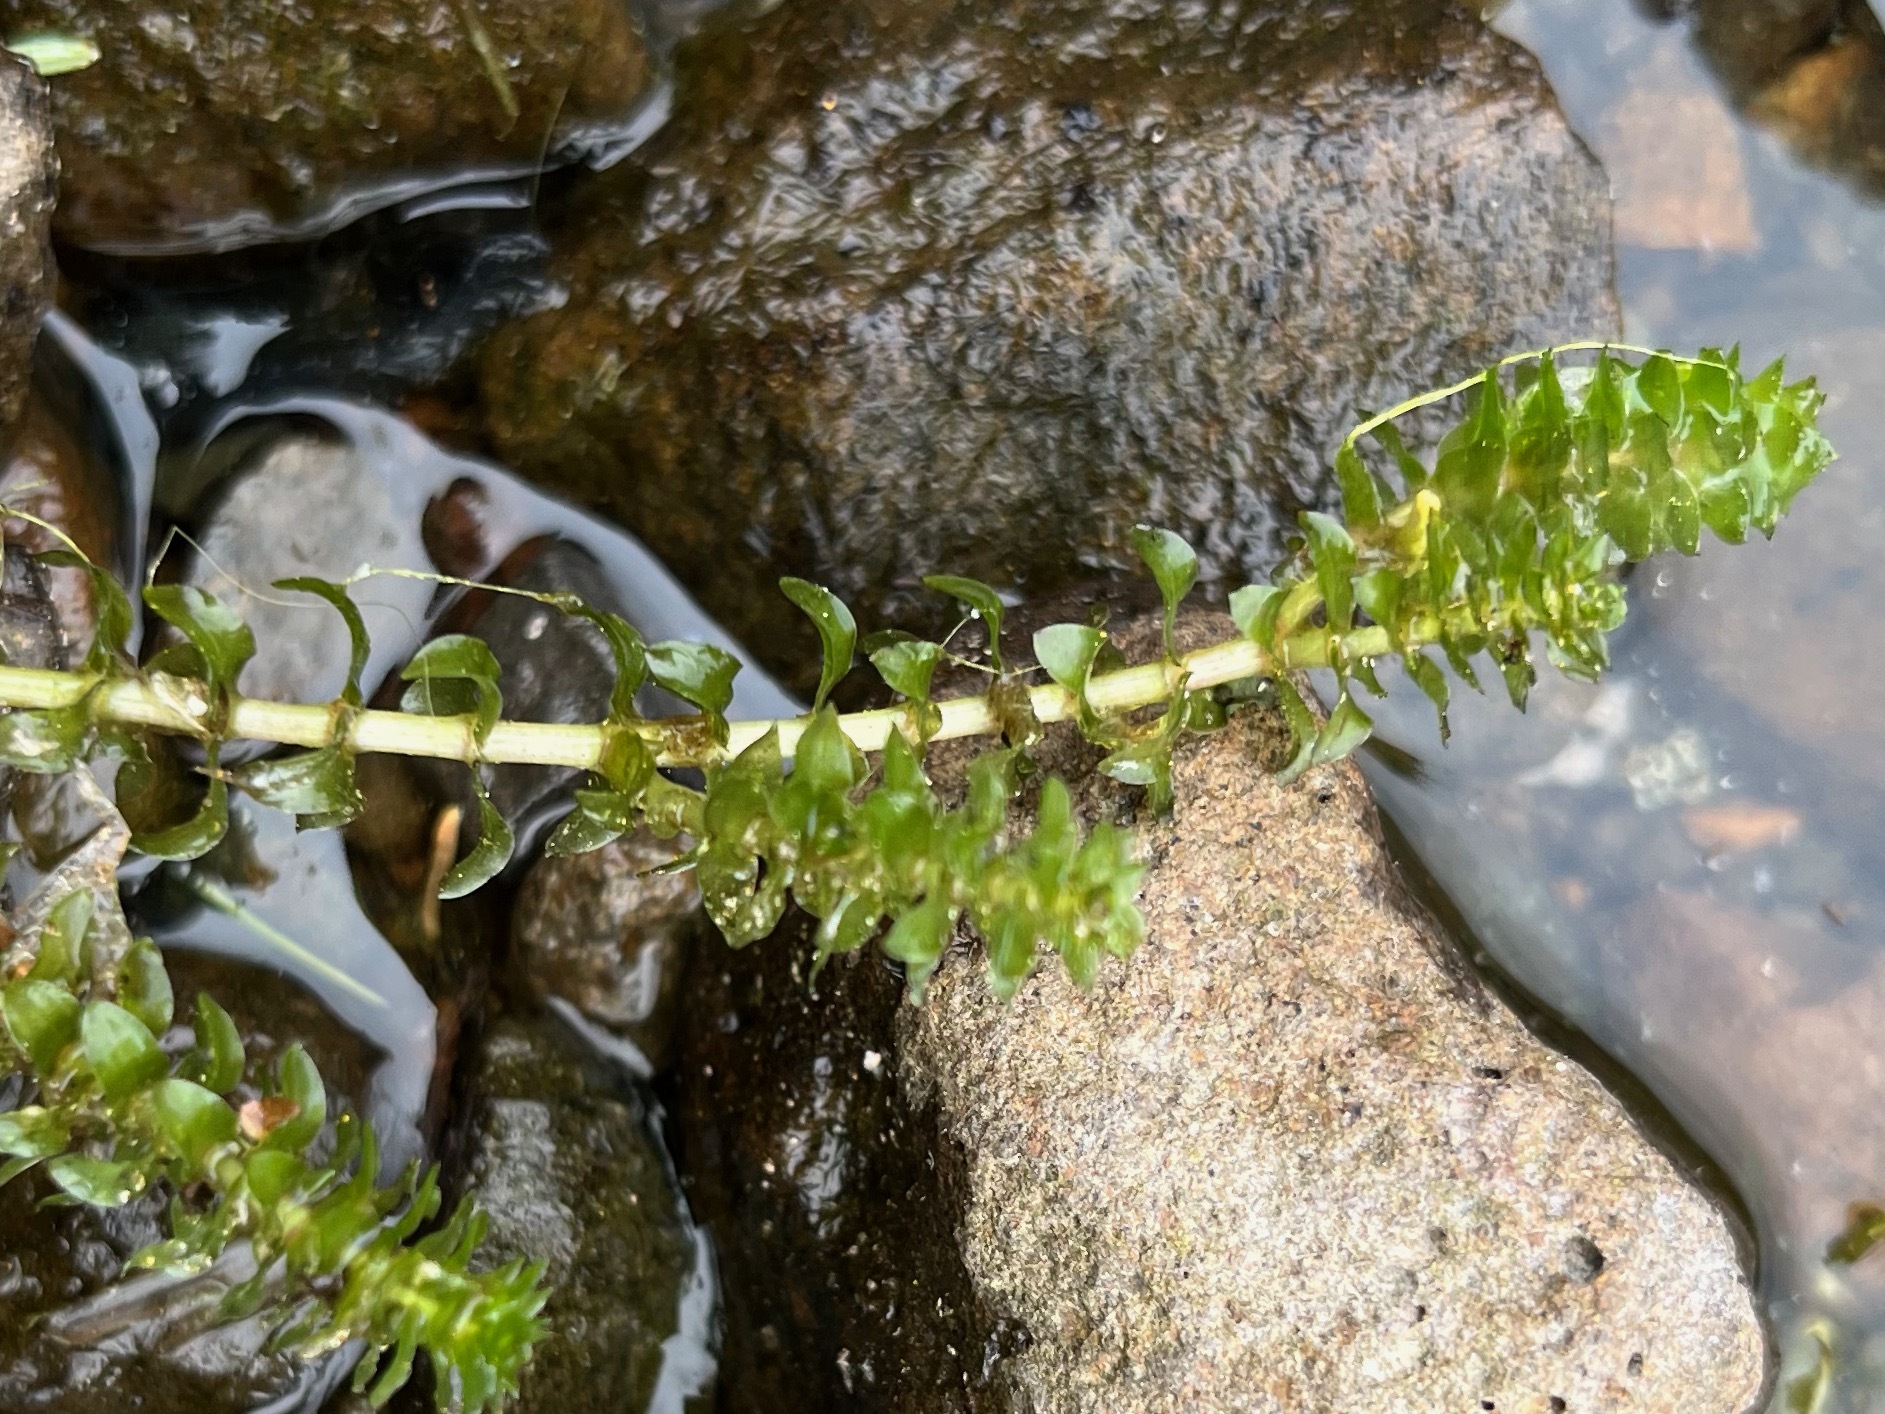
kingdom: Plantae
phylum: Tracheophyta
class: Liliopsida
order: Alismatales
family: Hydrocharitaceae
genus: Elodea
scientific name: Elodea canadensis
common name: Canadian waterweed
